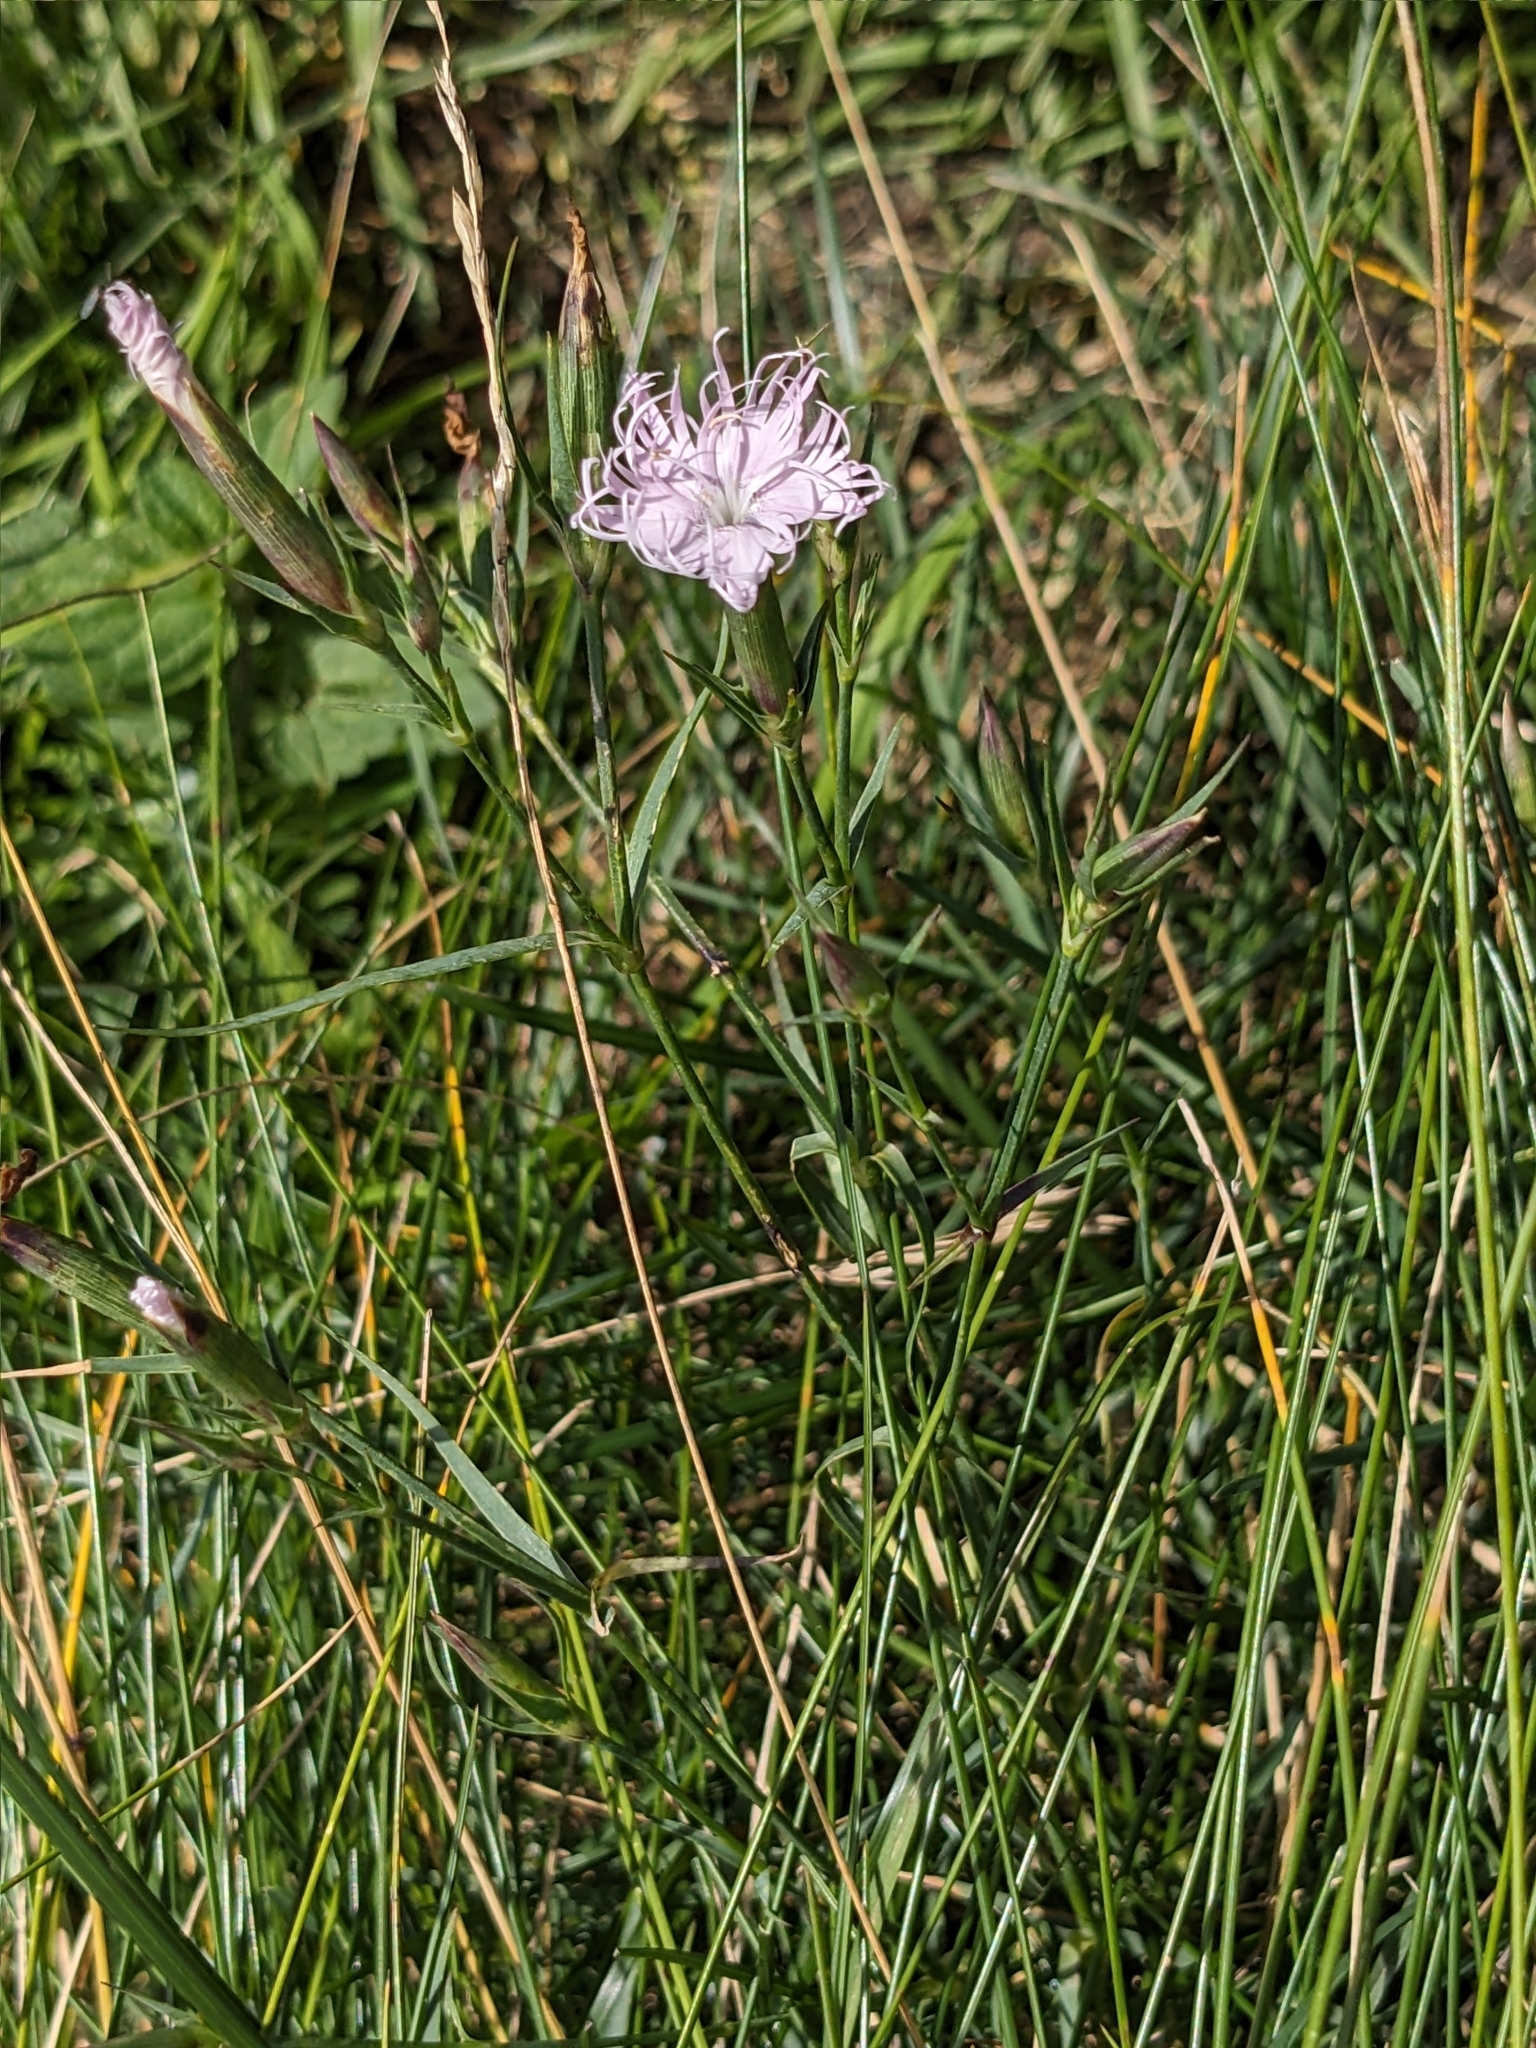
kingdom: Plantae
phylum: Tracheophyta
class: Magnoliopsida
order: Caryophyllales
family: Caryophyllaceae
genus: Dianthus
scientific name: Dianthus hyssopifolius
